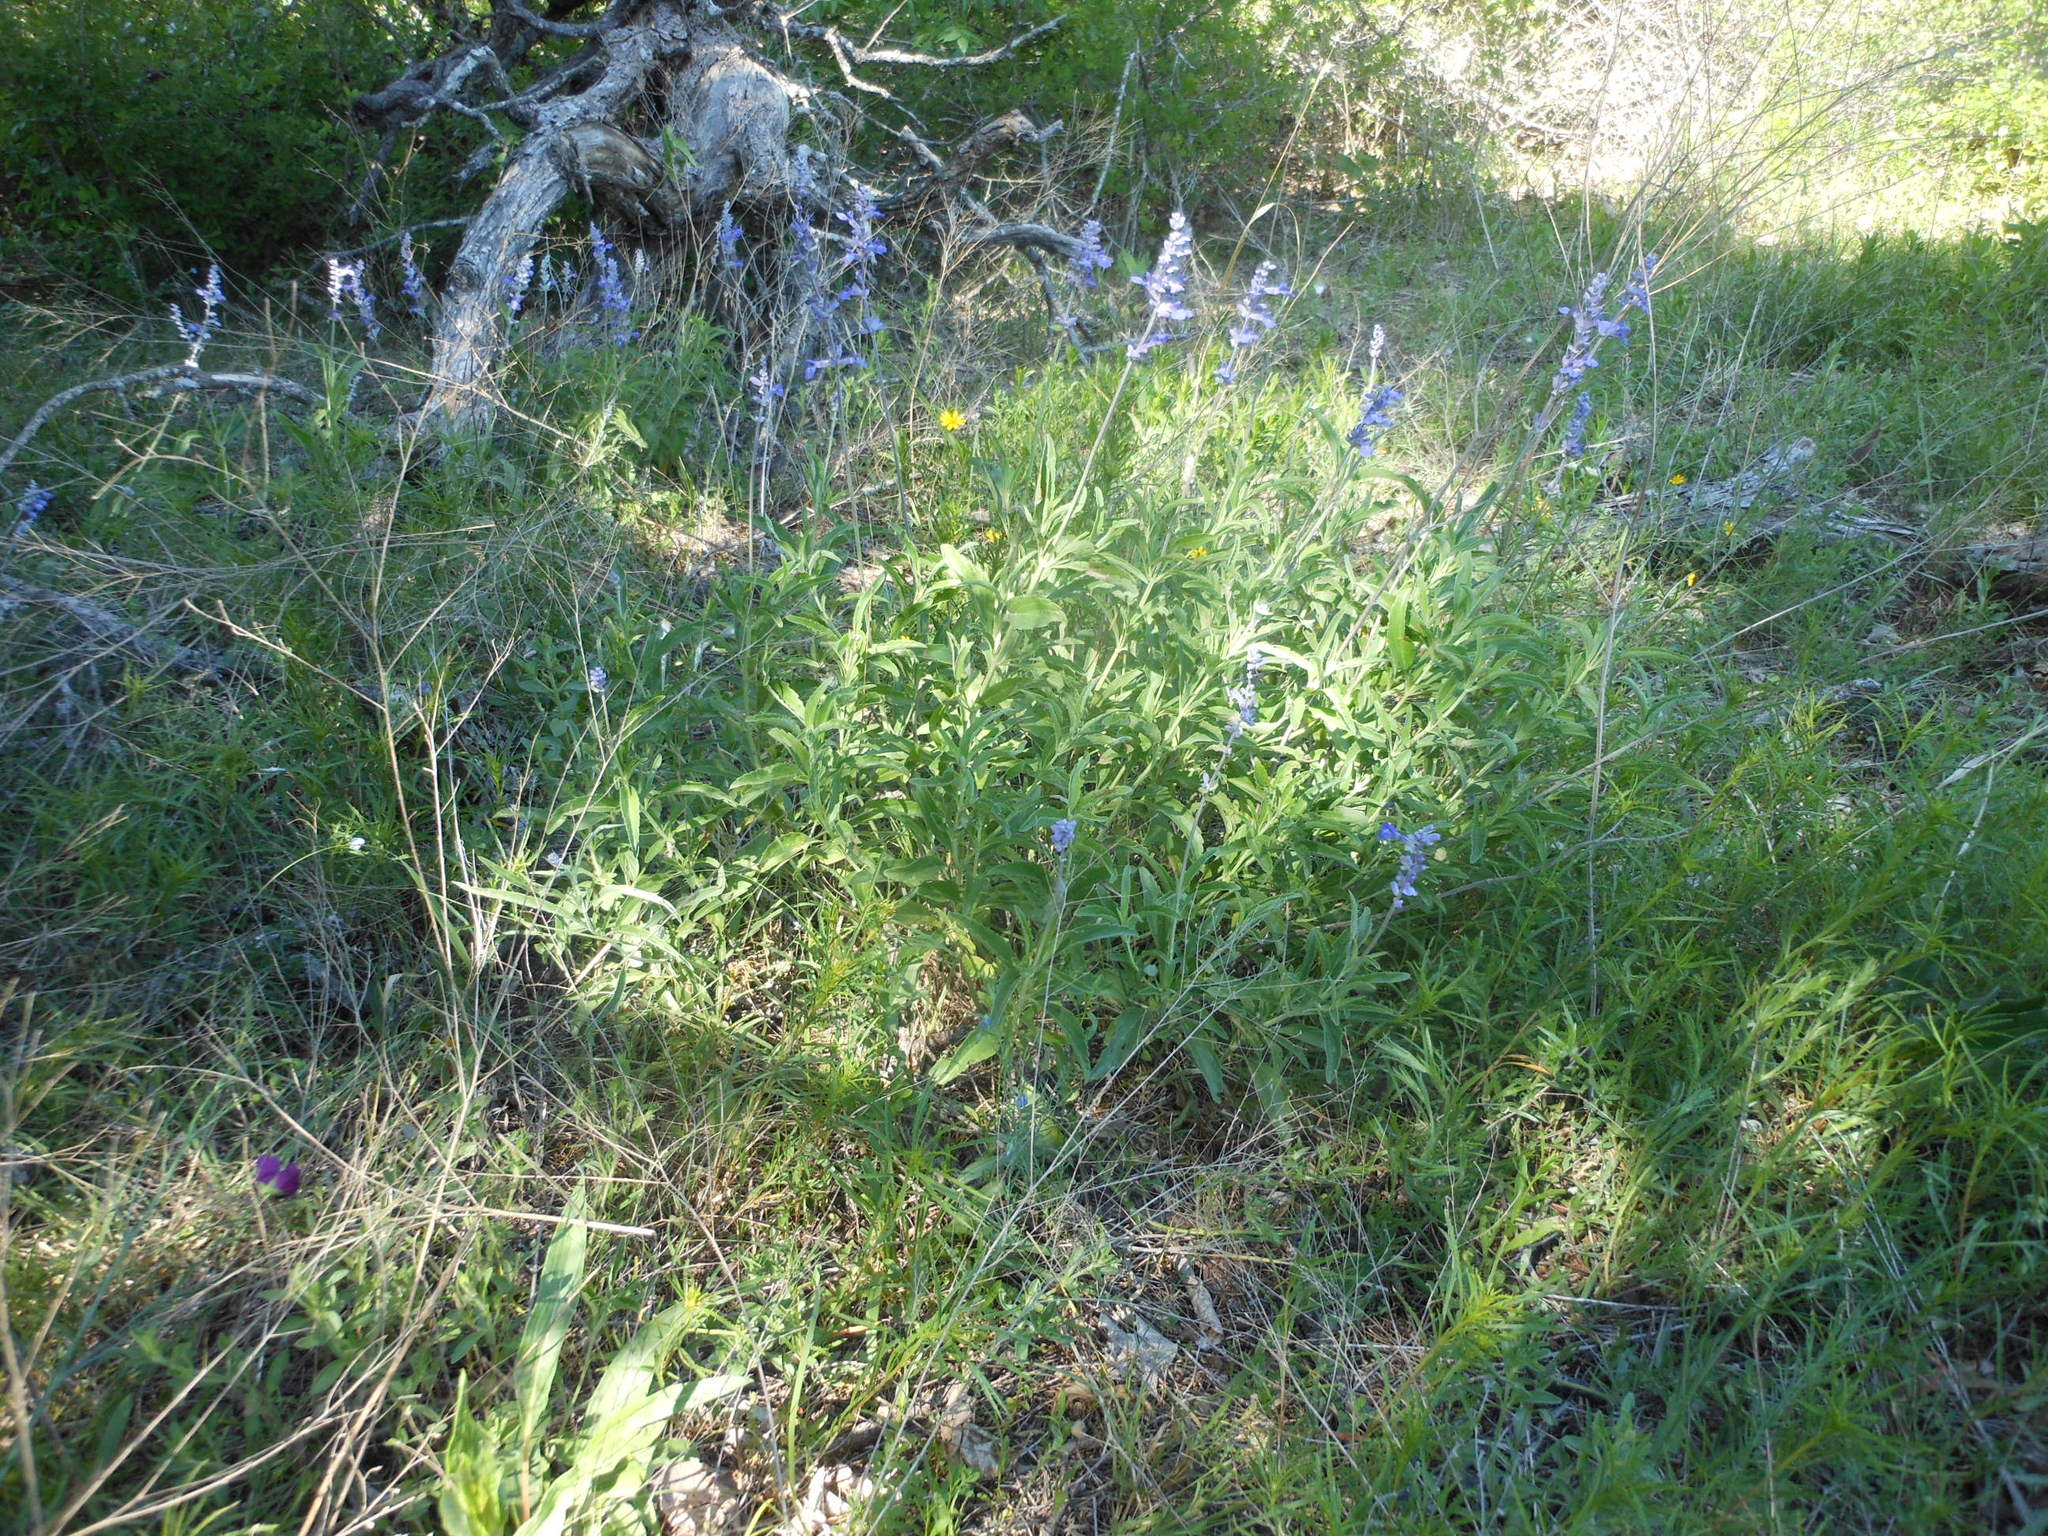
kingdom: Plantae
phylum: Tracheophyta
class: Magnoliopsida
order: Lamiales
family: Lamiaceae
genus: Salvia
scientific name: Salvia azurea
